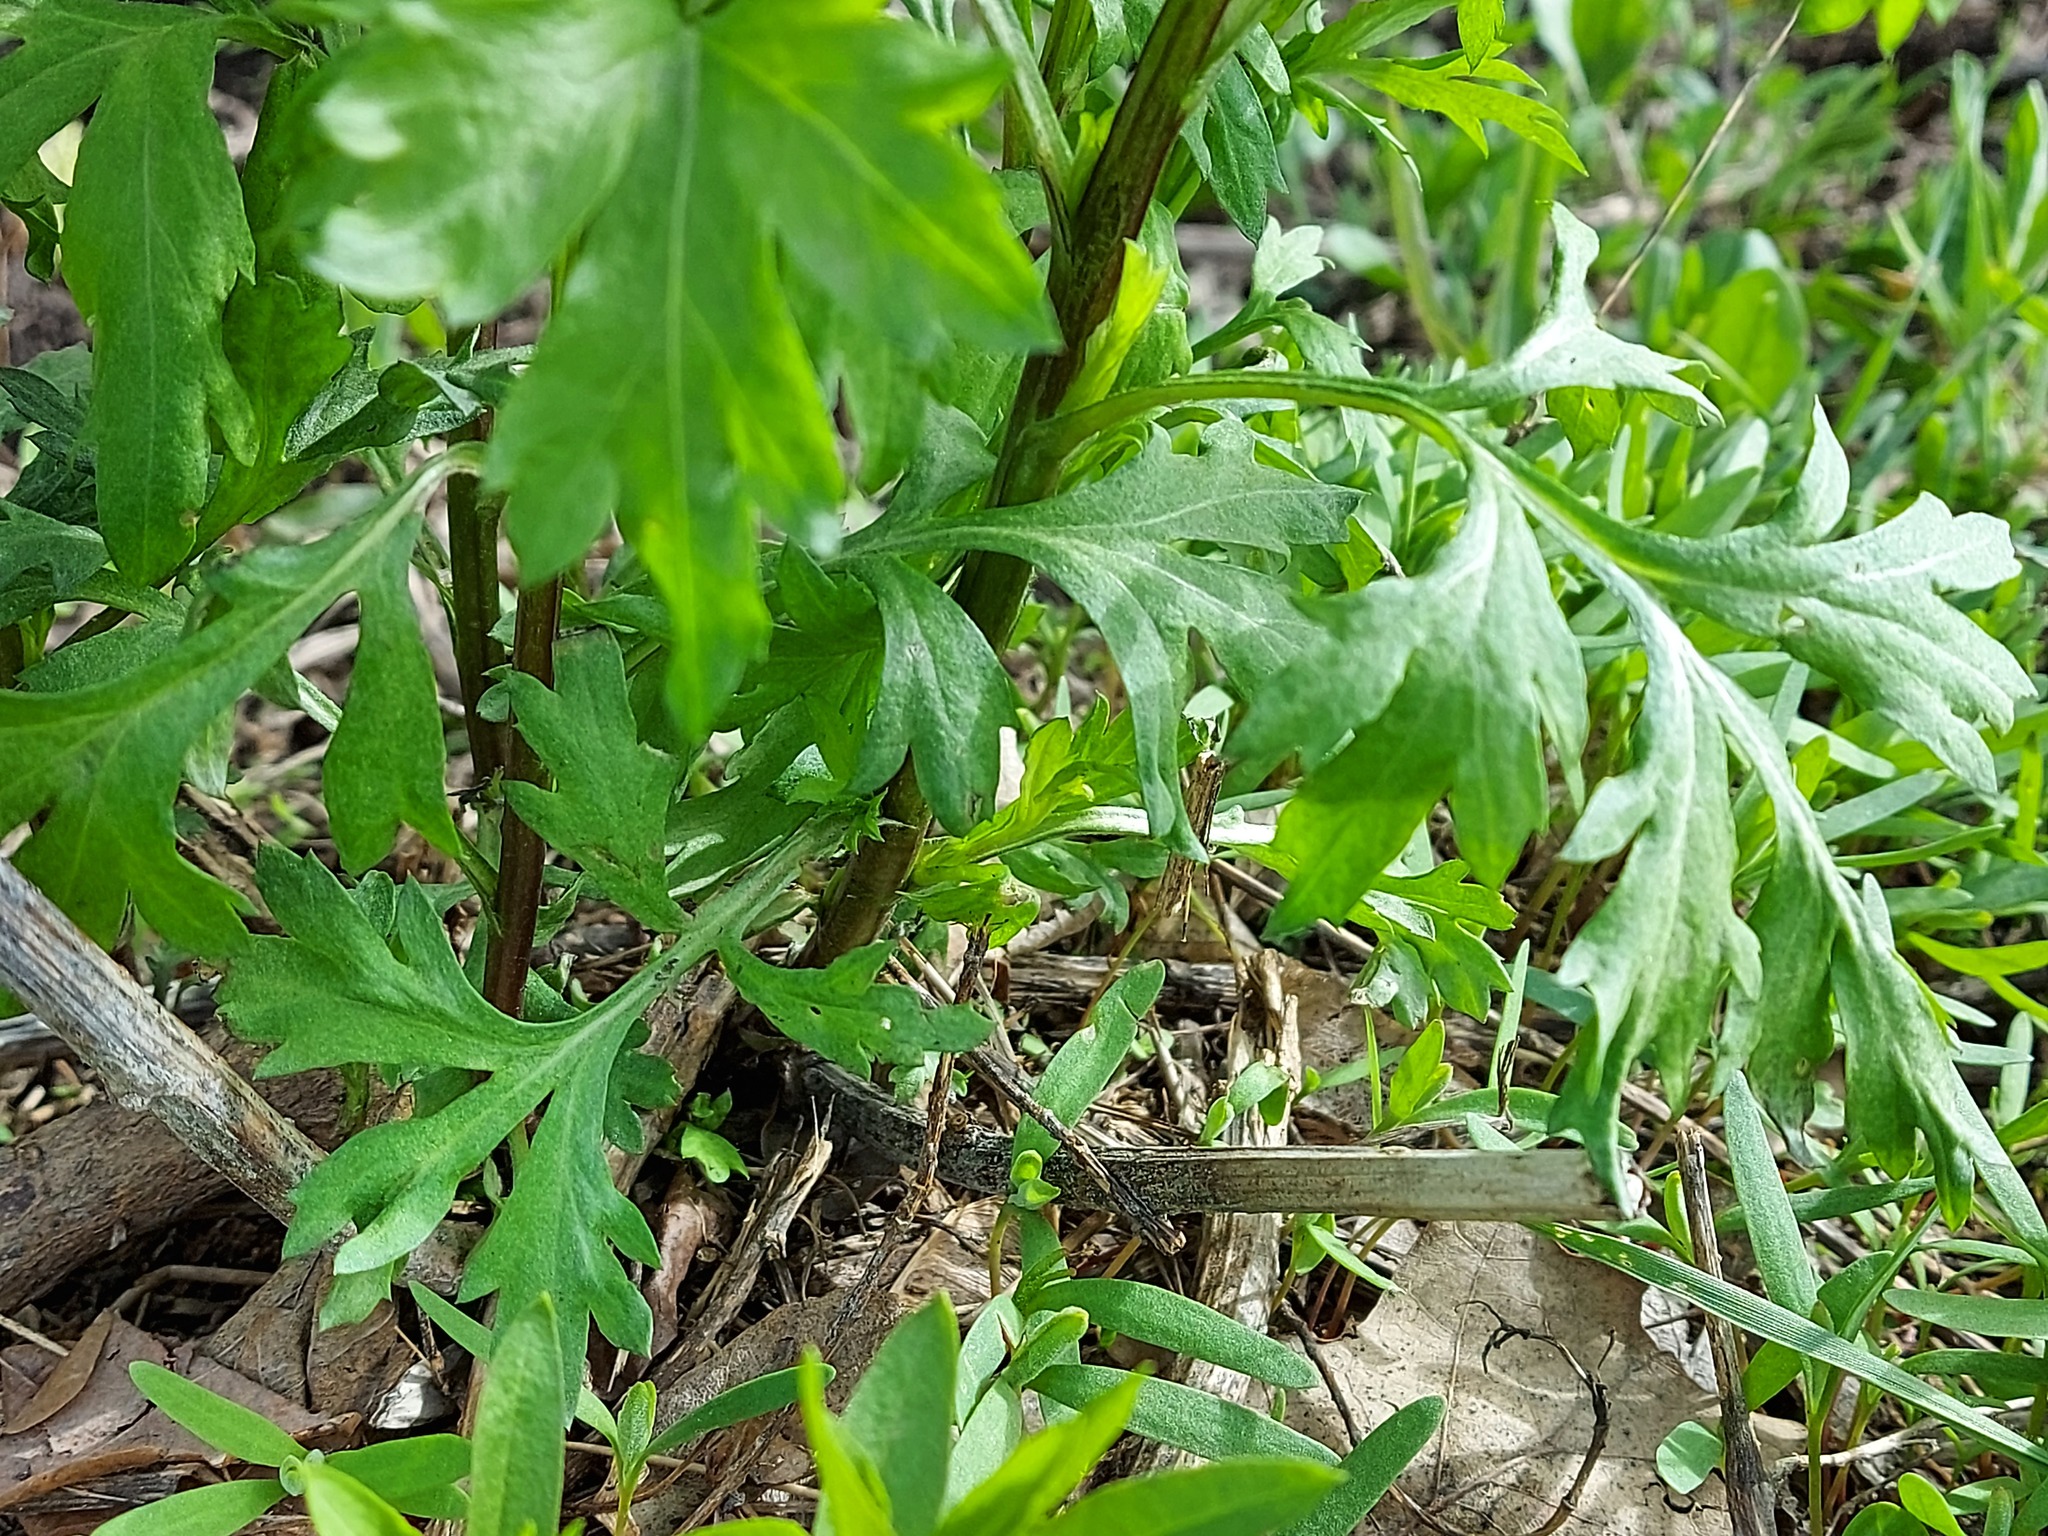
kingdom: Plantae
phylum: Tracheophyta
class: Magnoliopsida
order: Asterales
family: Asteraceae
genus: Artemisia
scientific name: Artemisia vulgaris
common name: Mugwort
